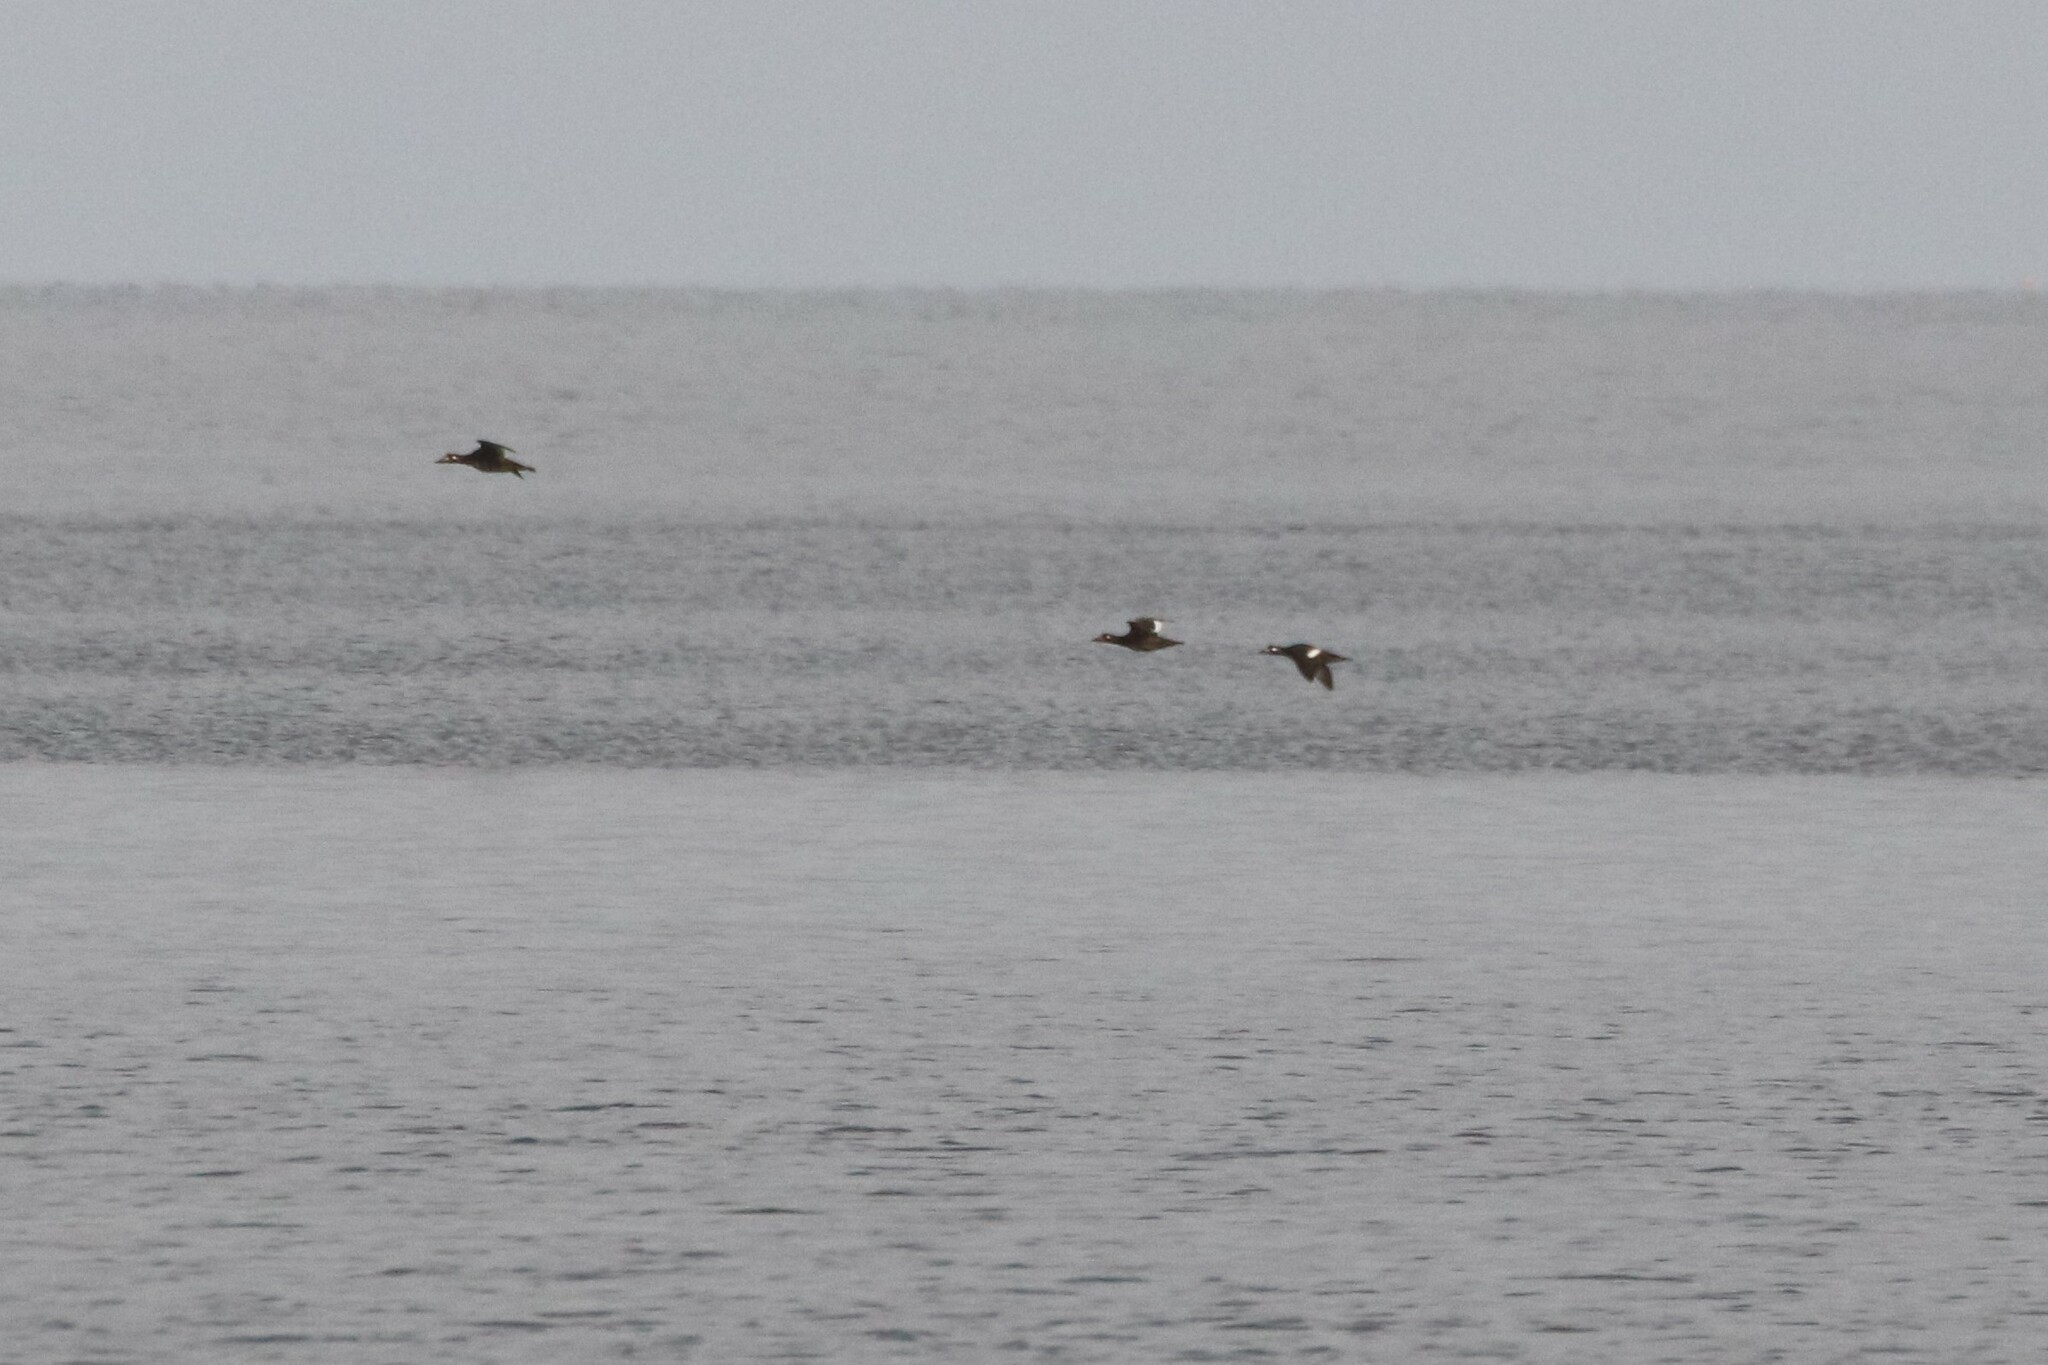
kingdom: Animalia
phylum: Chordata
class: Aves
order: Anseriformes
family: Anatidae
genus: Melanitta
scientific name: Melanitta deglandi
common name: White-winged scoter
